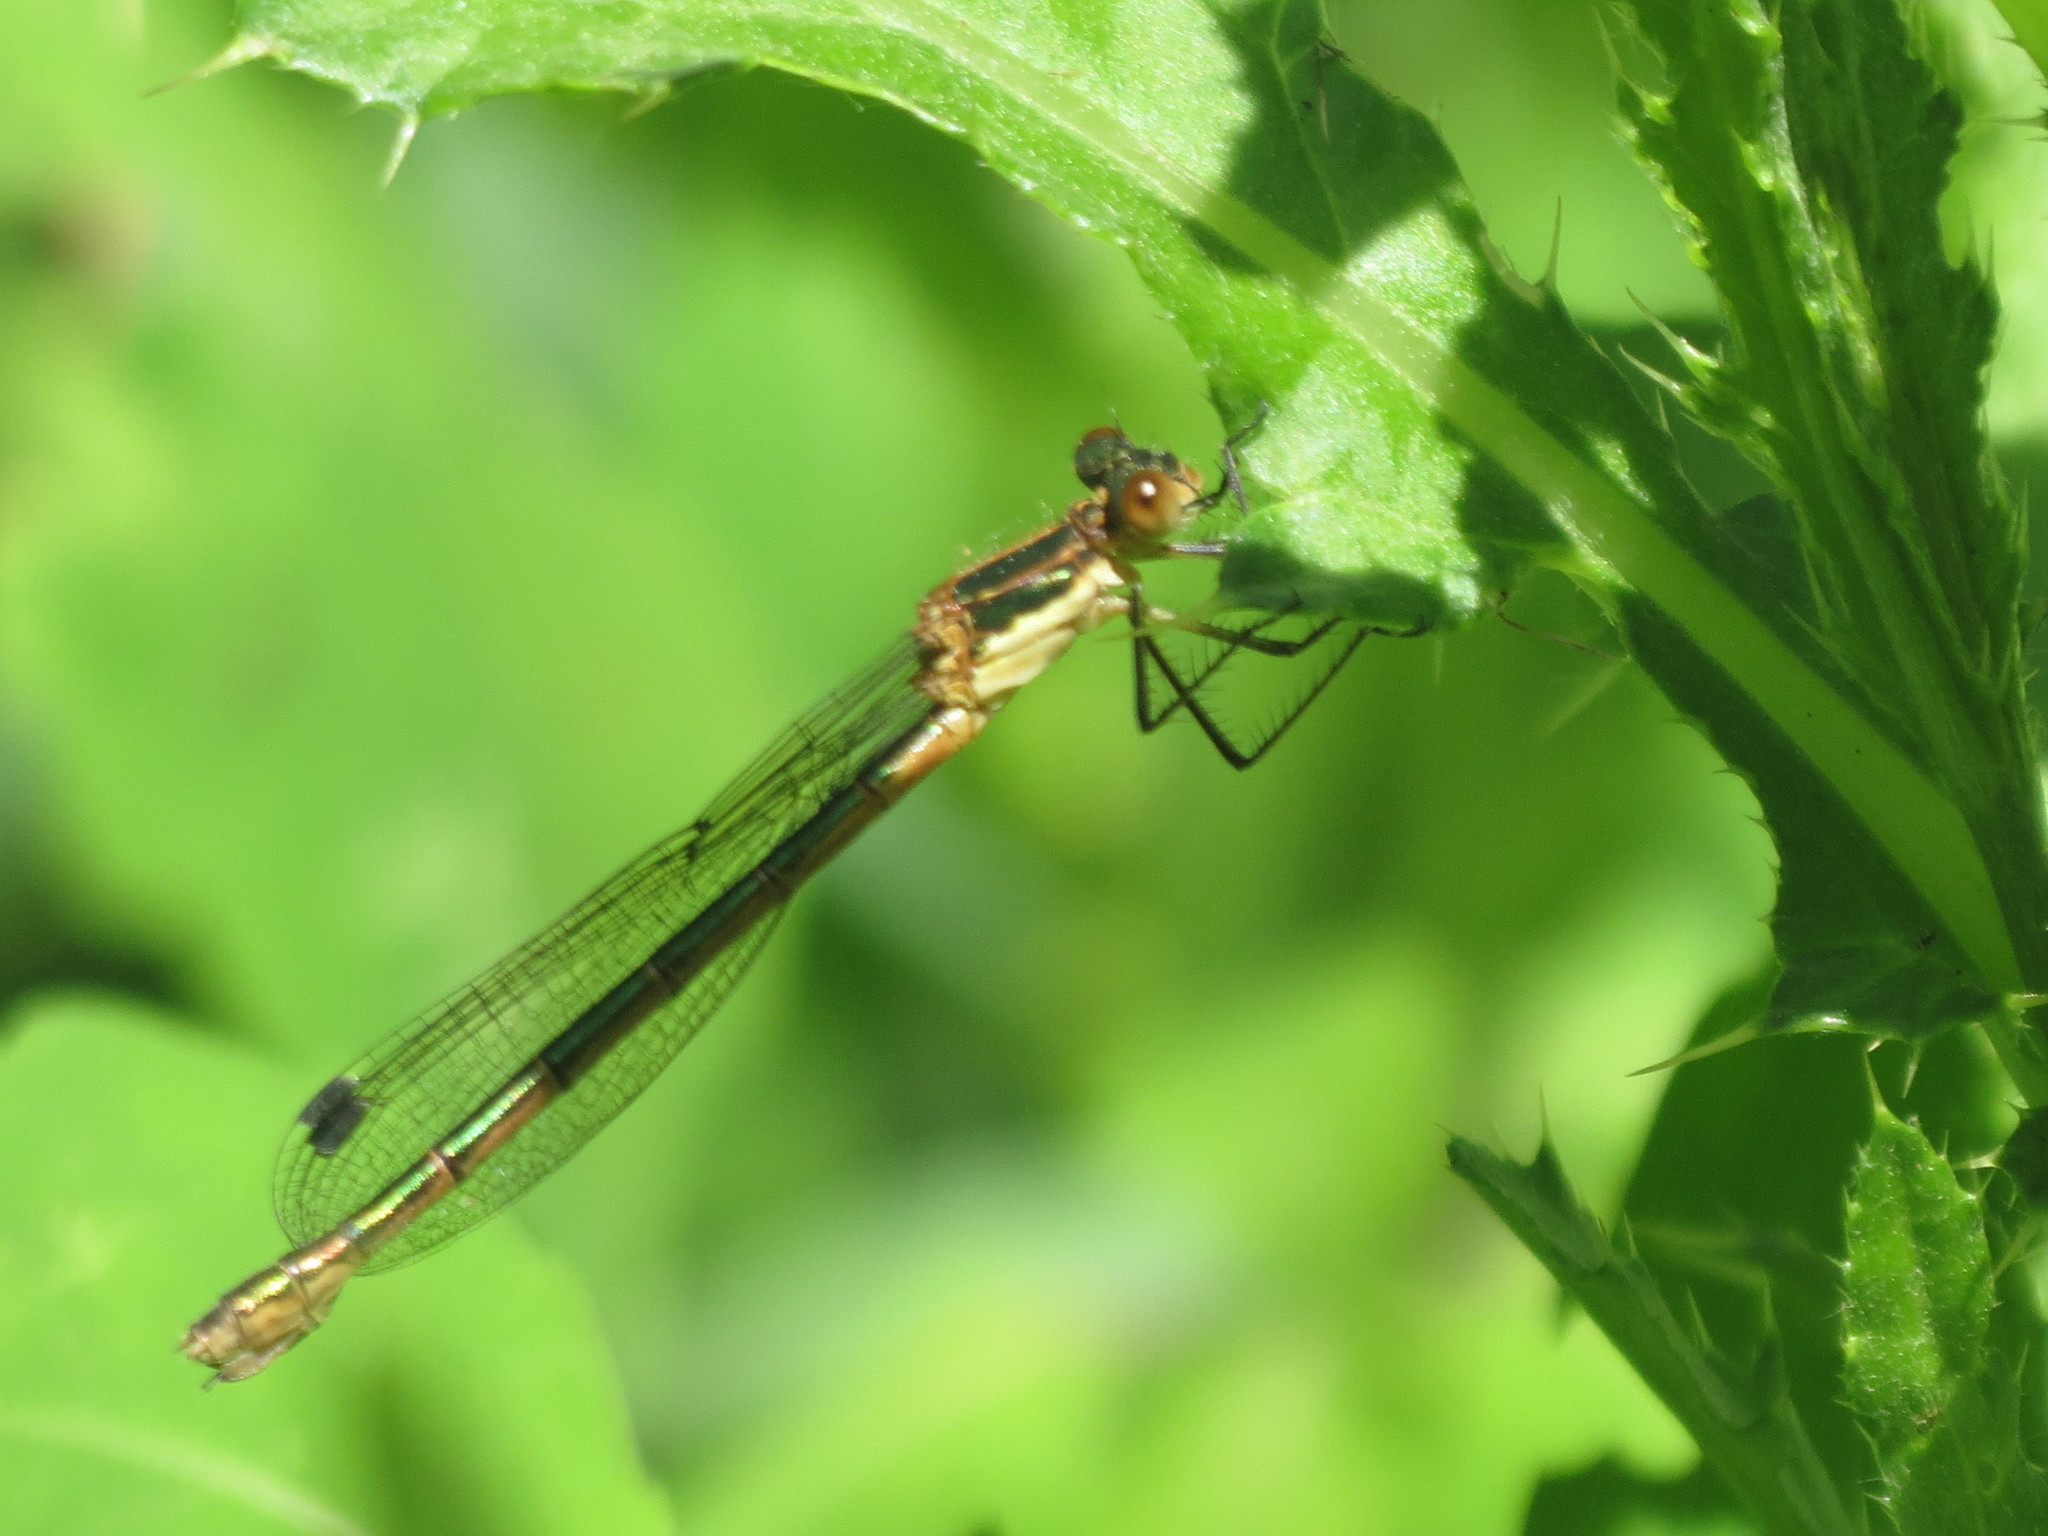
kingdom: Animalia
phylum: Arthropoda
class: Insecta
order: Odonata
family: Lestidae
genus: Lestes
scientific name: Lestes dryas
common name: Scarce emerald damselfly
